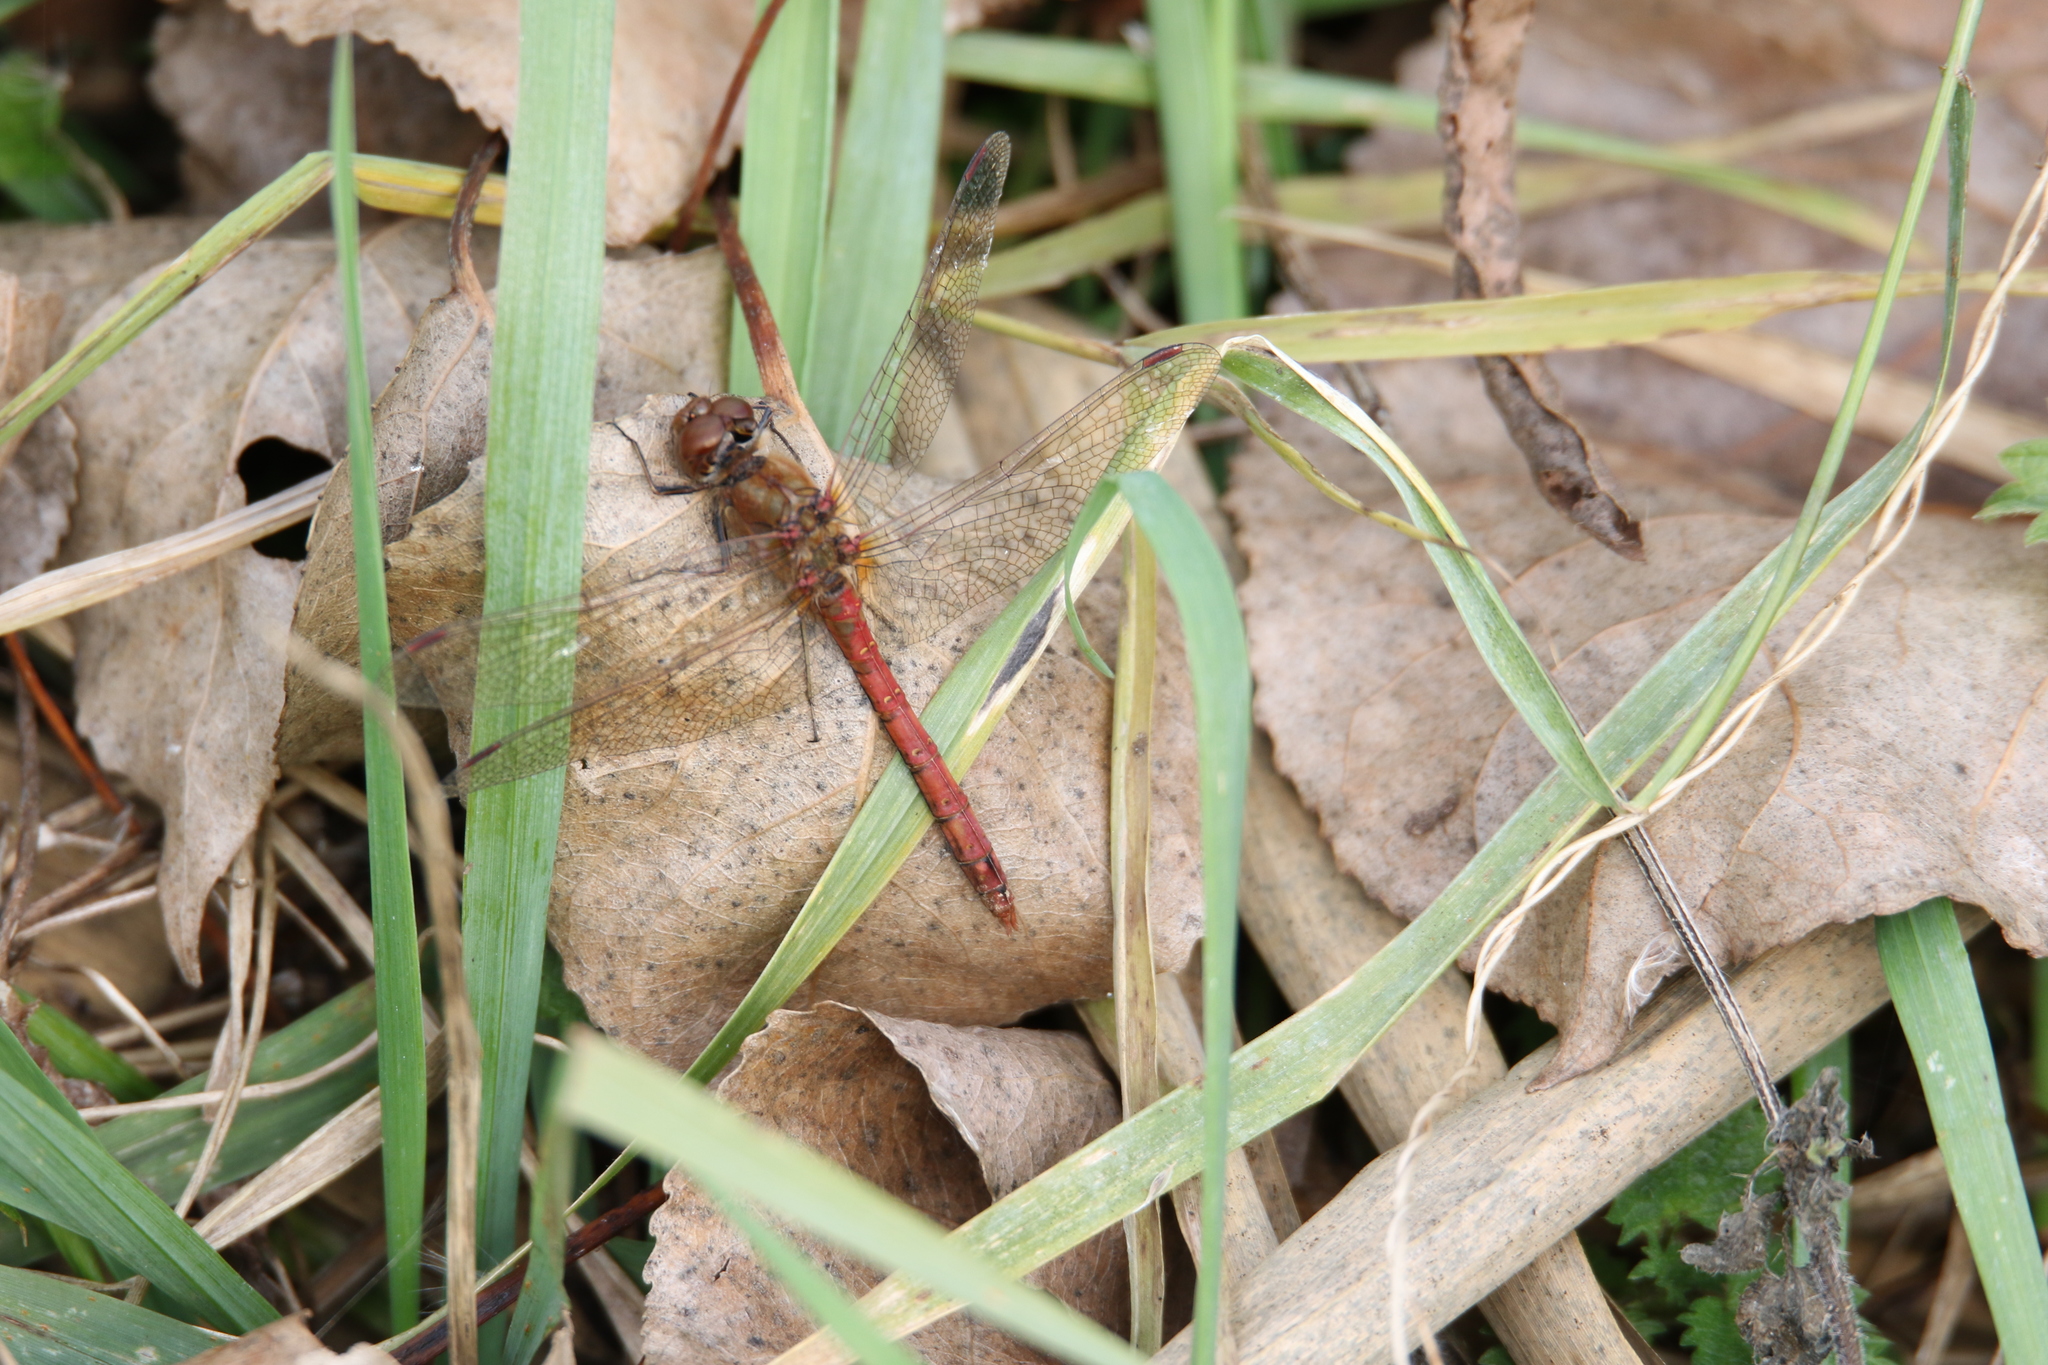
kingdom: Animalia
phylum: Arthropoda
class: Insecta
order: Odonata
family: Libellulidae
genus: Sympetrum
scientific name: Sympetrum striolatum
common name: Common darter
